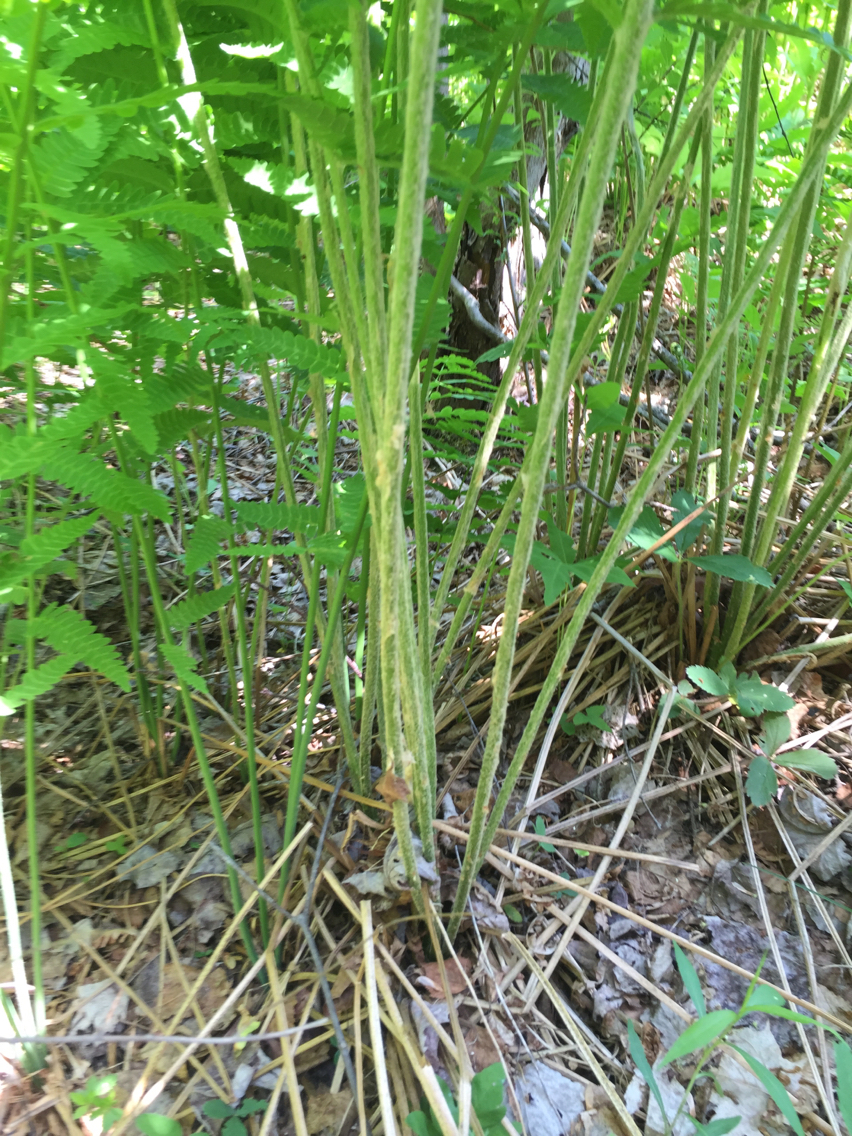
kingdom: Plantae
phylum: Tracheophyta
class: Polypodiopsida
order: Osmundales
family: Osmundaceae
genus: Osmundastrum
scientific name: Osmundastrum cinnamomeum
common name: Cinnamon fern
